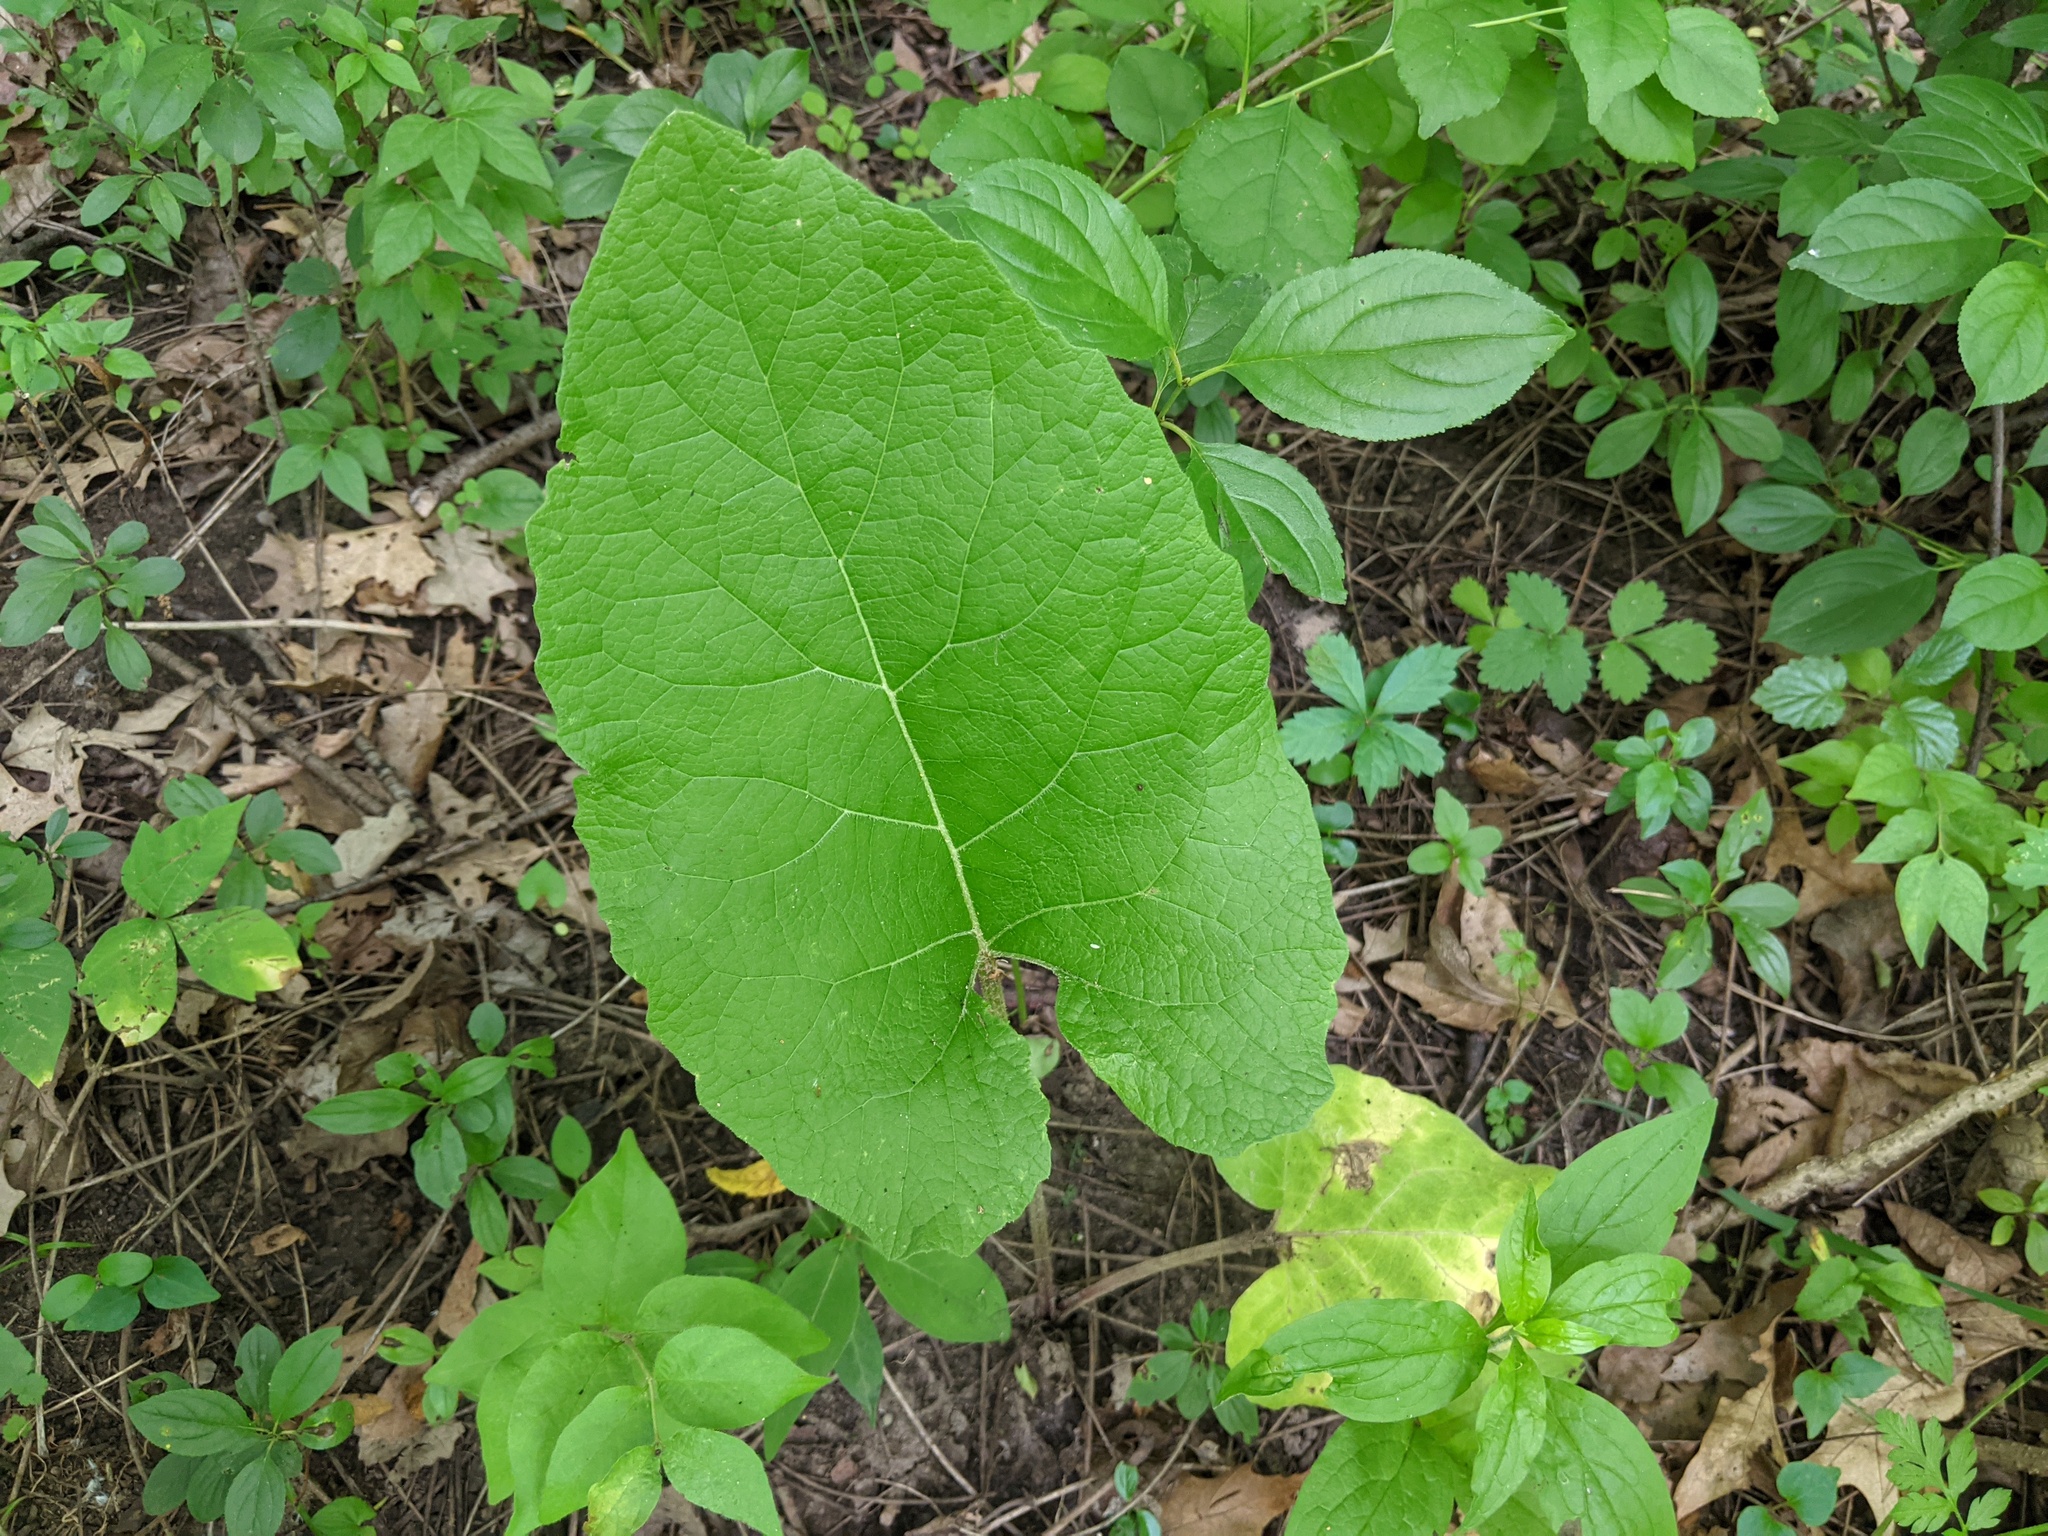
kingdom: Plantae
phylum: Tracheophyta
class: Magnoliopsida
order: Asterales
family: Asteraceae
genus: Arctium
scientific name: Arctium
